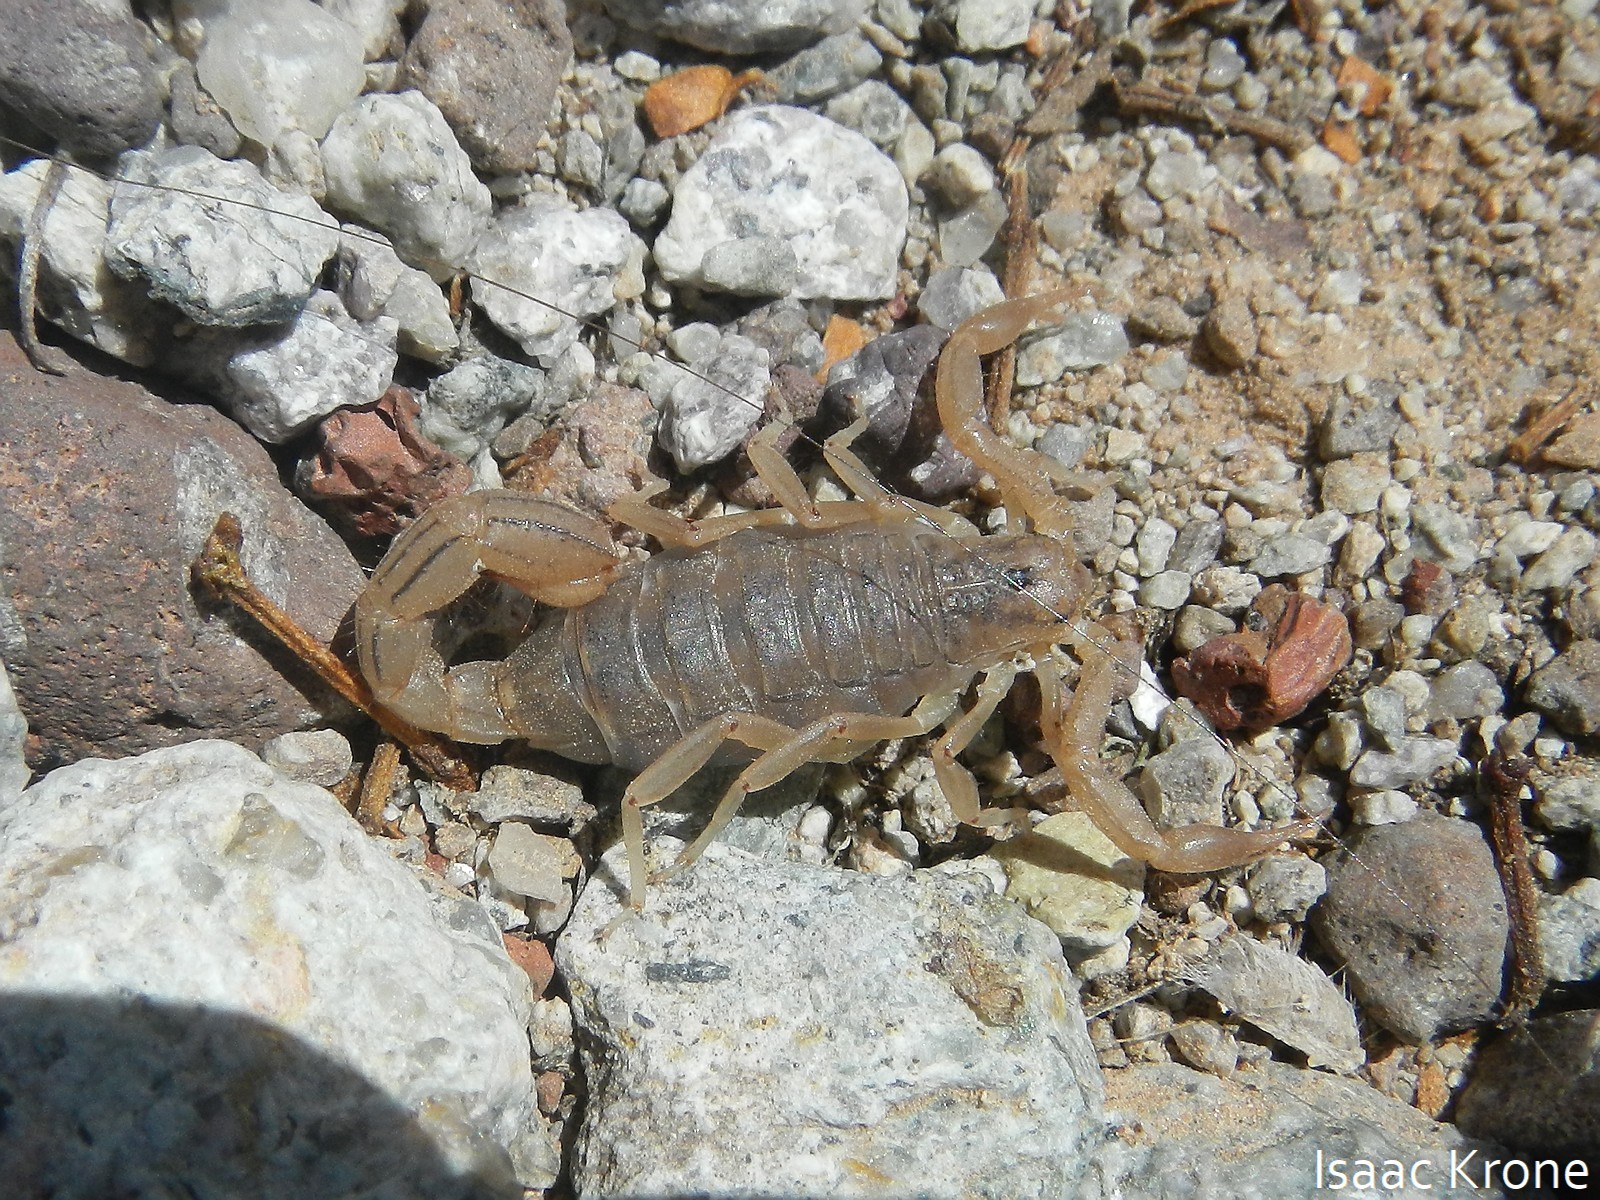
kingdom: Animalia
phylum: Arthropoda
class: Arachnida
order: Scorpiones
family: Vaejovidae
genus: Paravaejovis
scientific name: Paravaejovis spinigerus
